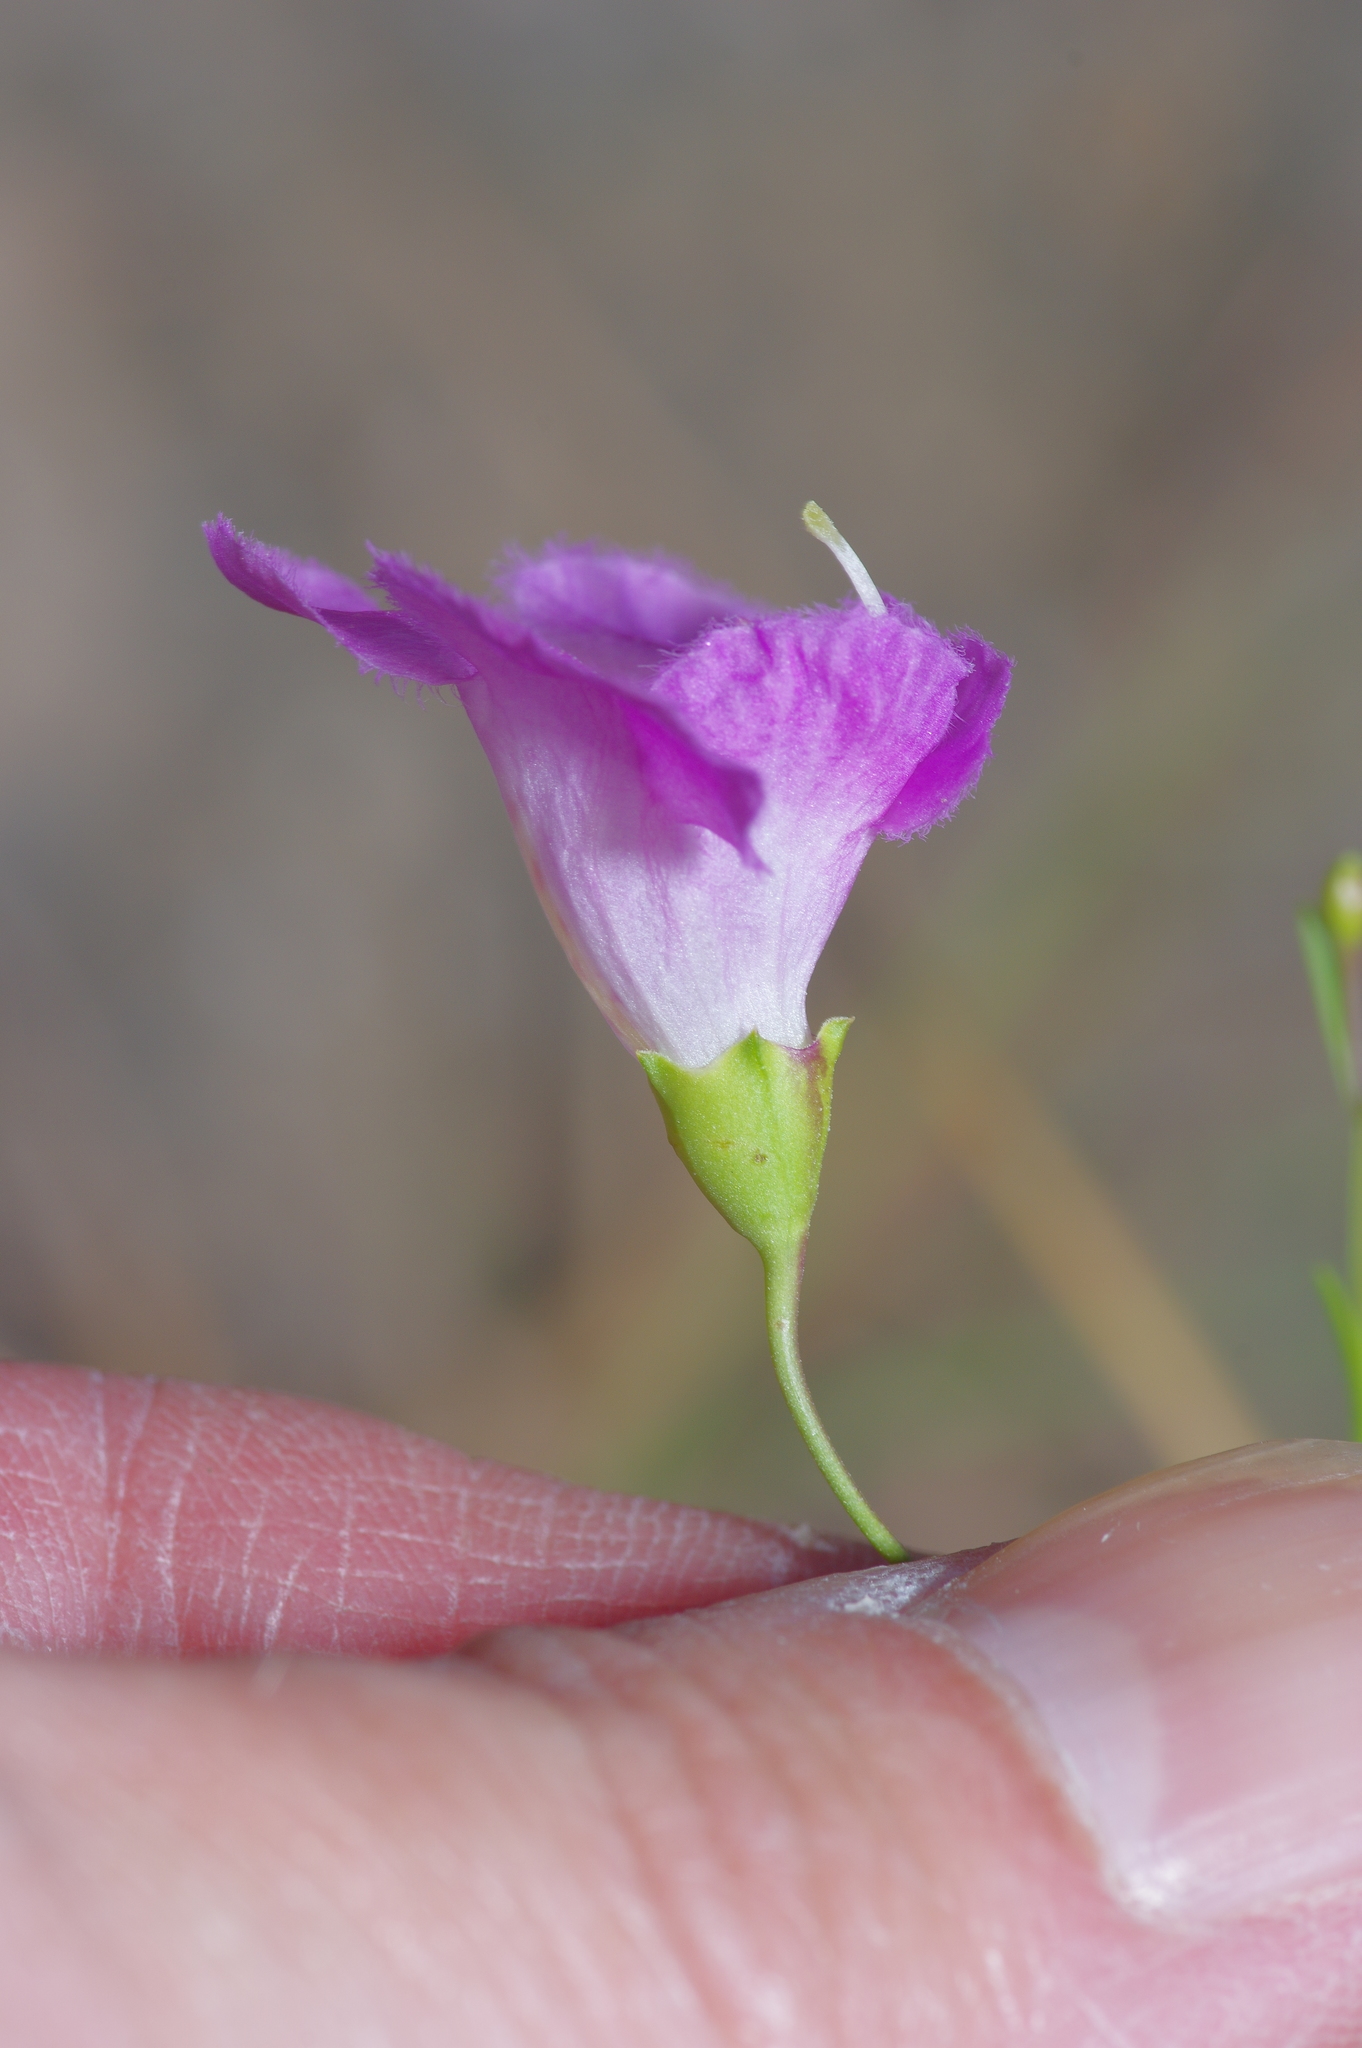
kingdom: Plantae
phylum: Tracheophyta
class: Magnoliopsida
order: Lamiales
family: Orobanchaceae
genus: Agalinis
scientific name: Agalinis edwardsiana
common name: Plateau-gerardia
